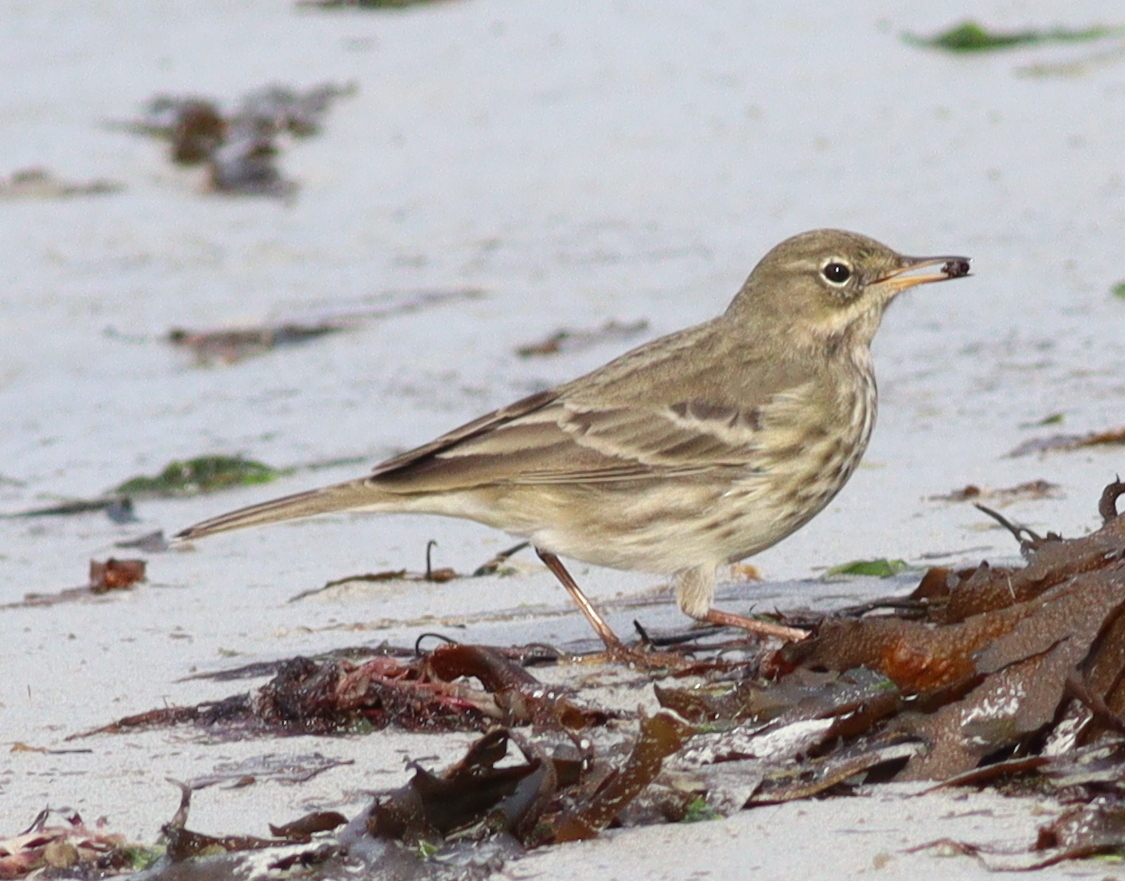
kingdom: Animalia
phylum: Chordata
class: Aves
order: Passeriformes
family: Motacillidae
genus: Anthus
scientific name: Anthus petrosus
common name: Eurasian rock pipit
